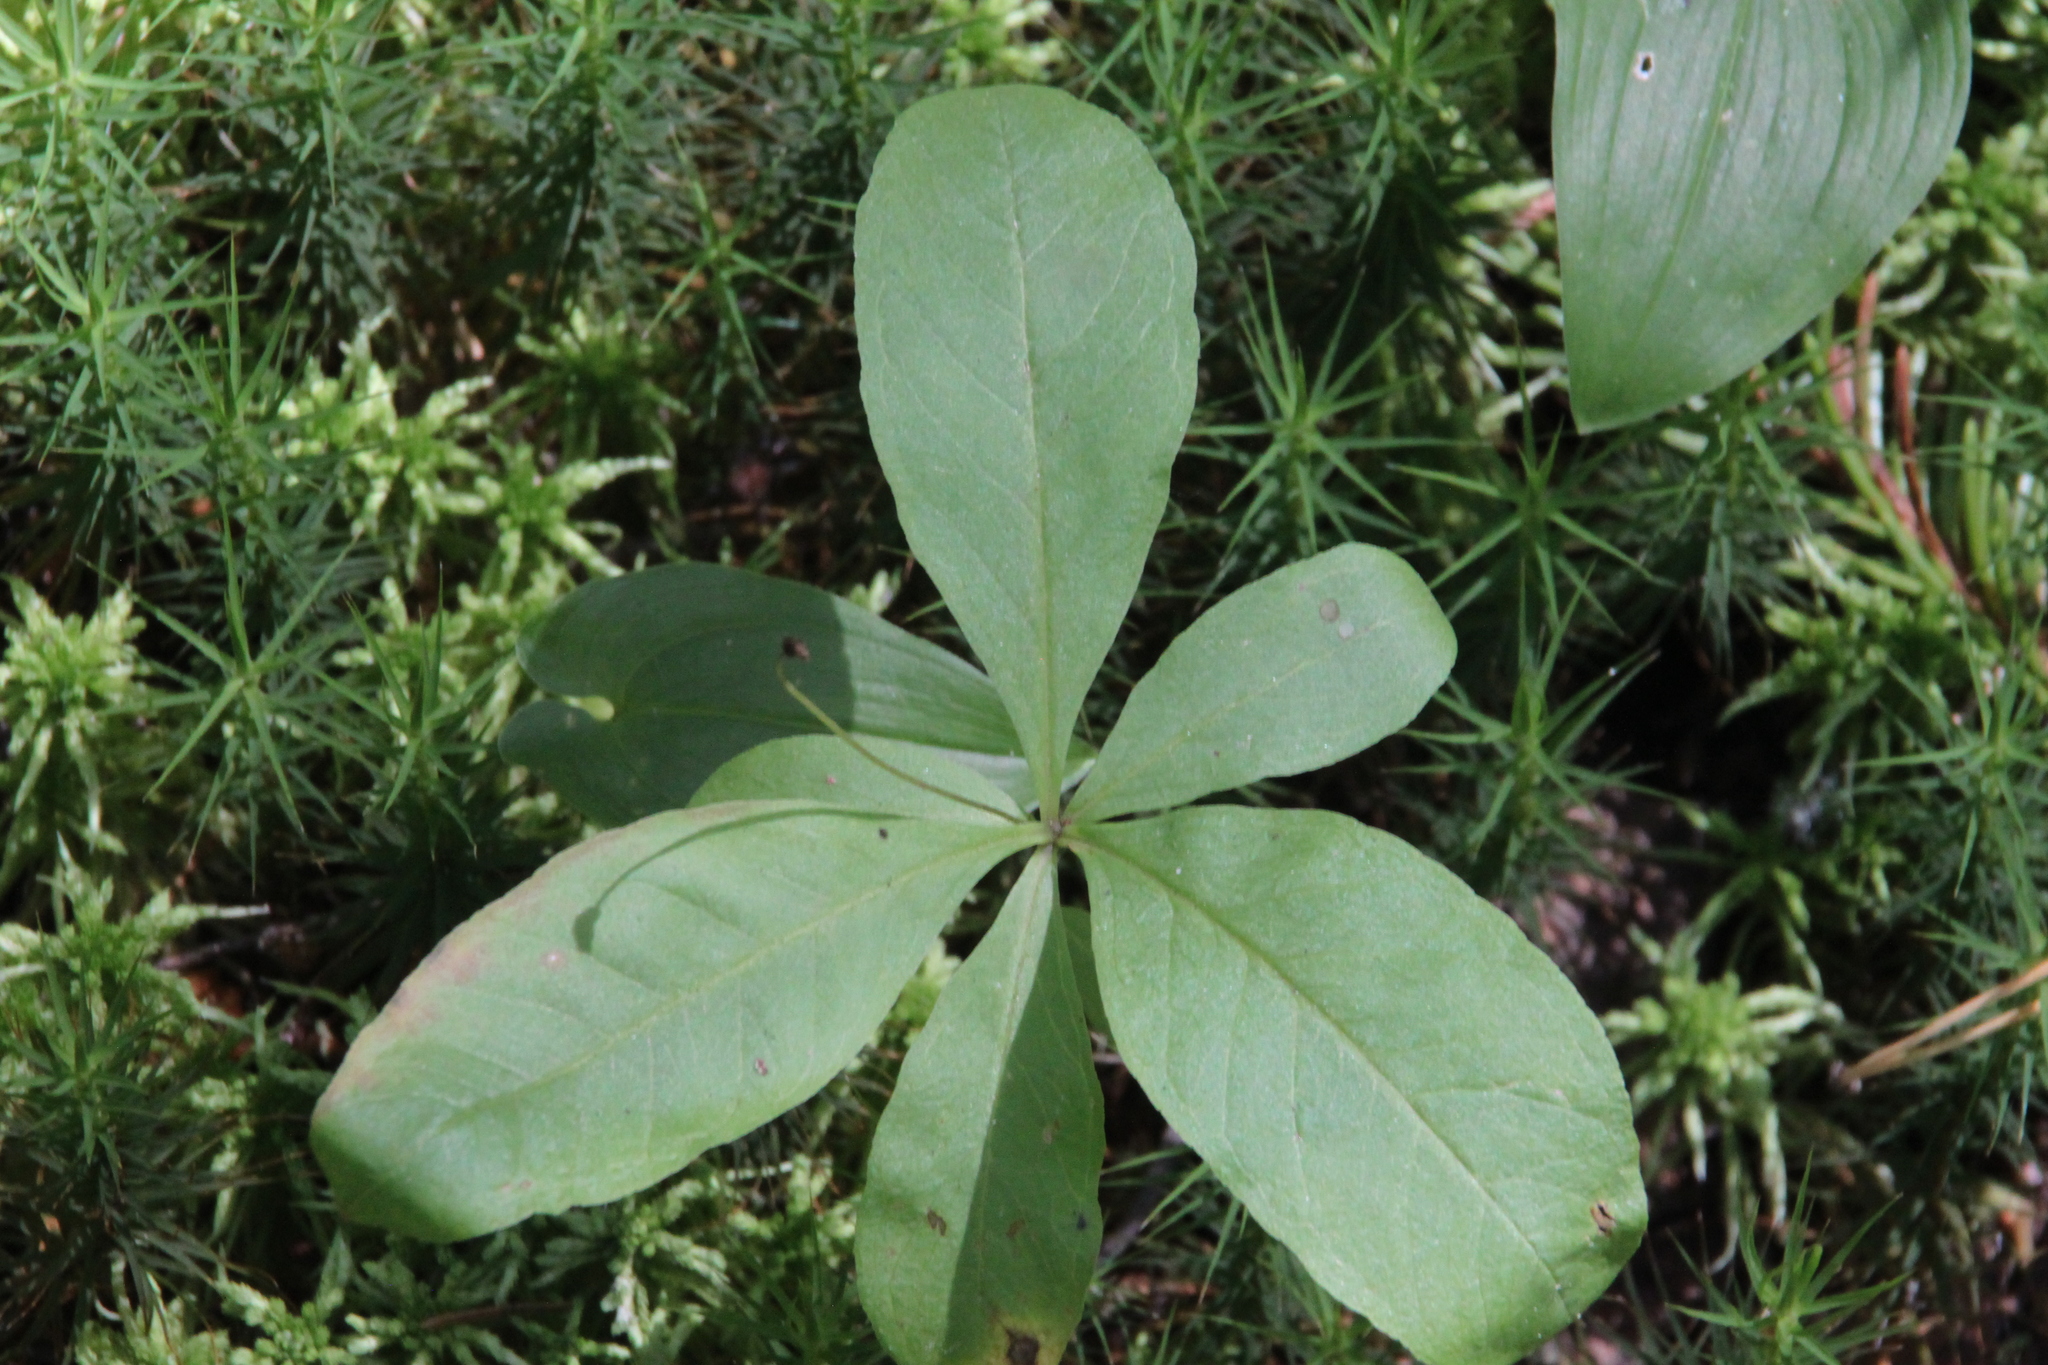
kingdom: Plantae
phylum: Tracheophyta
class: Magnoliopsida
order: Ericales
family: Primulaceae
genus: Lysimachia
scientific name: Lysimachia europaea
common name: Arctic starflower
